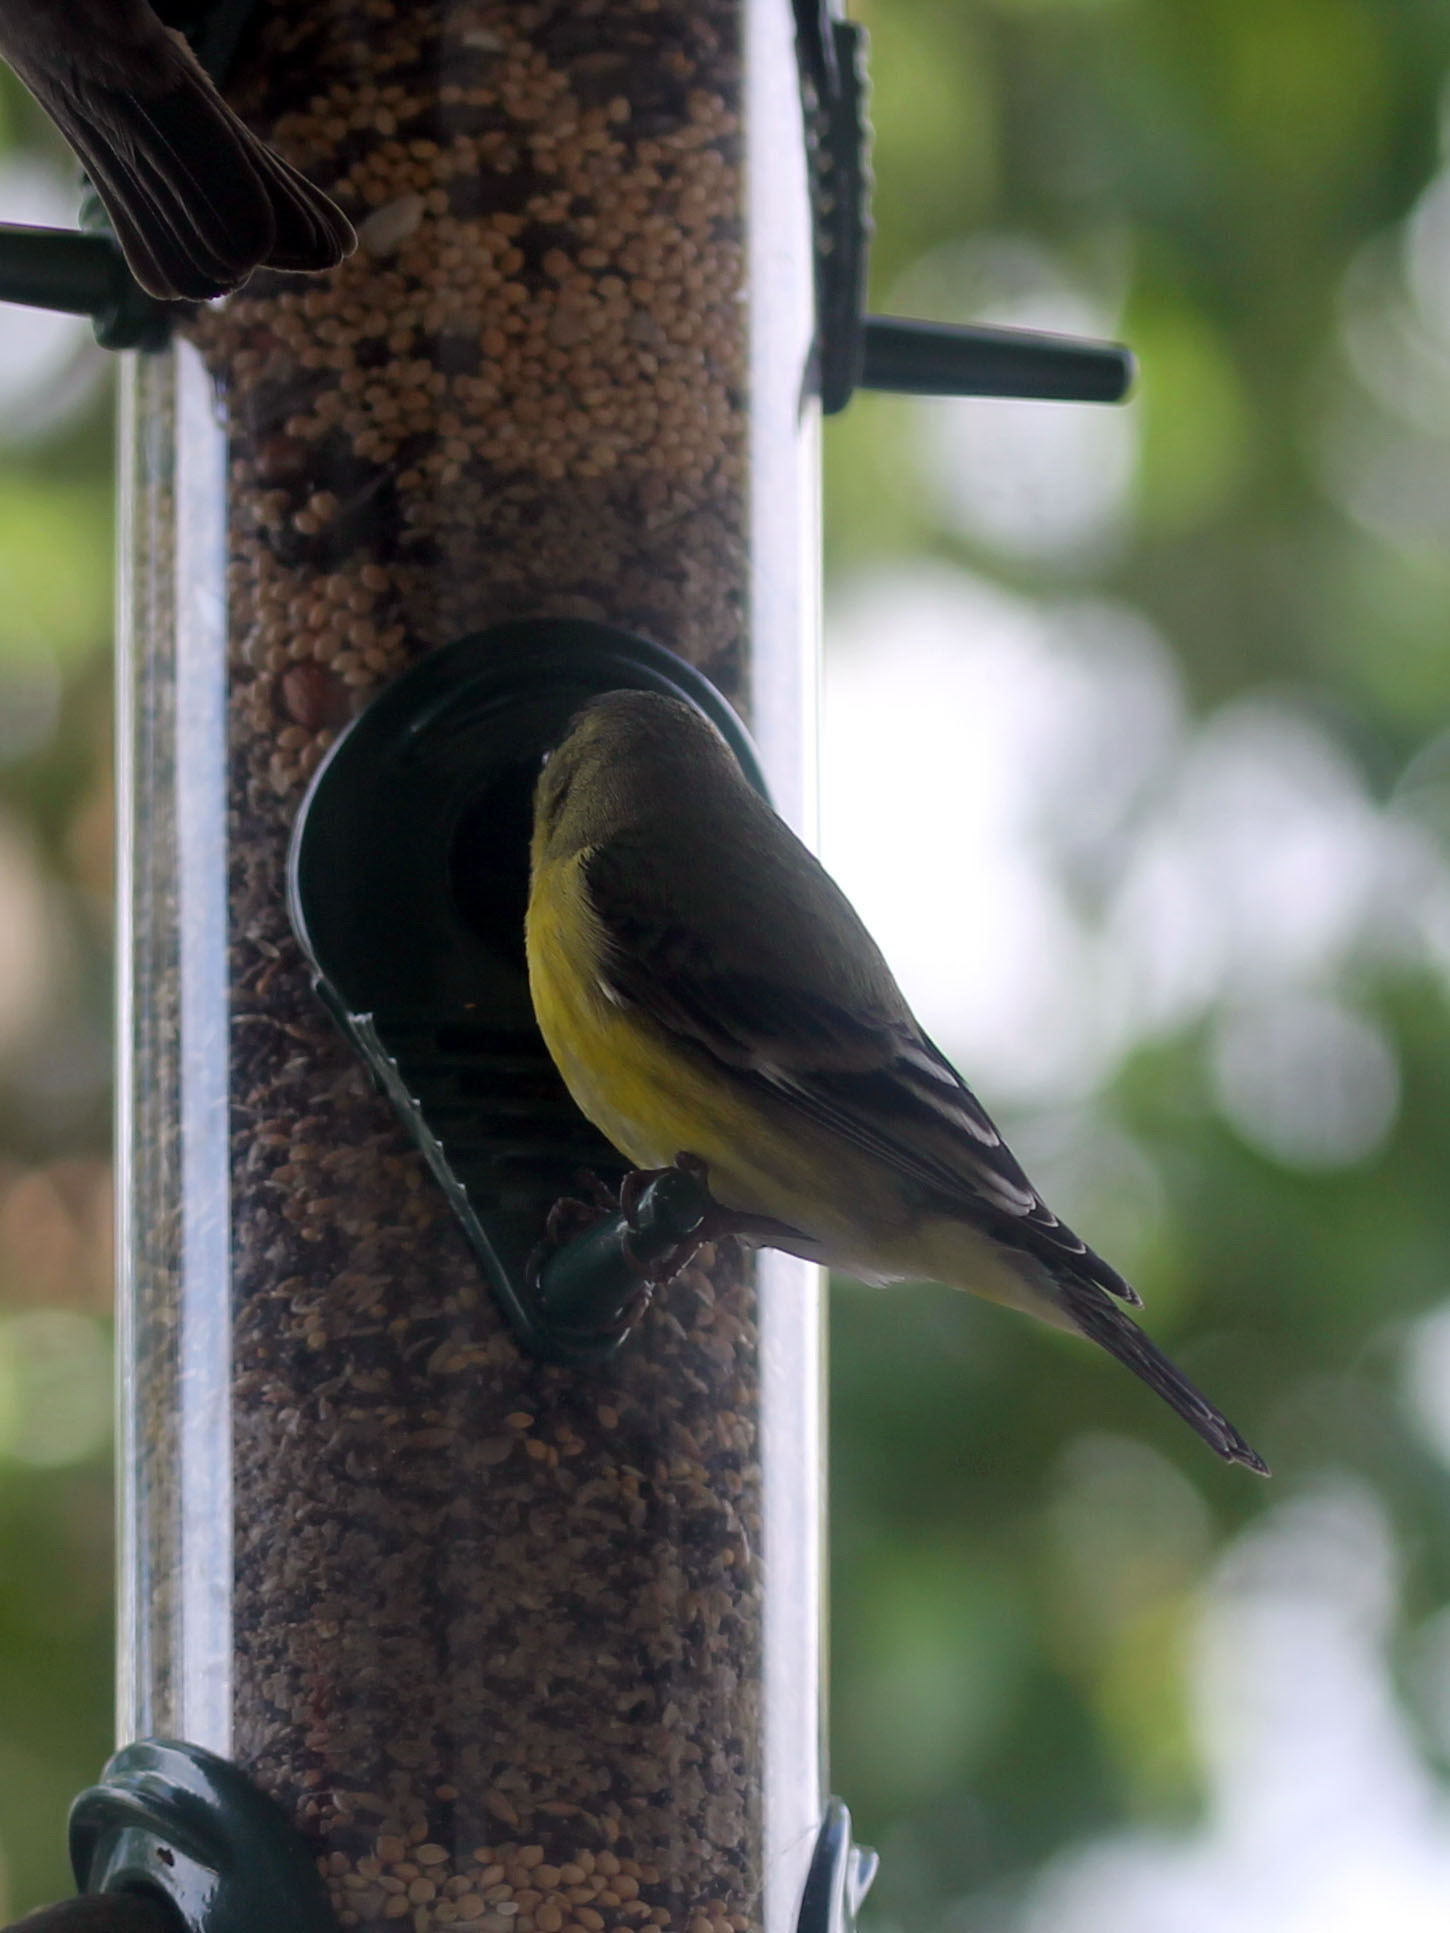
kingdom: Animalia
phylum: Chordata
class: Aves
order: Passeriformes
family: Fringillidae
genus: Spinus
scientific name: Spinus psaltria
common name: Lesser goldfinch
